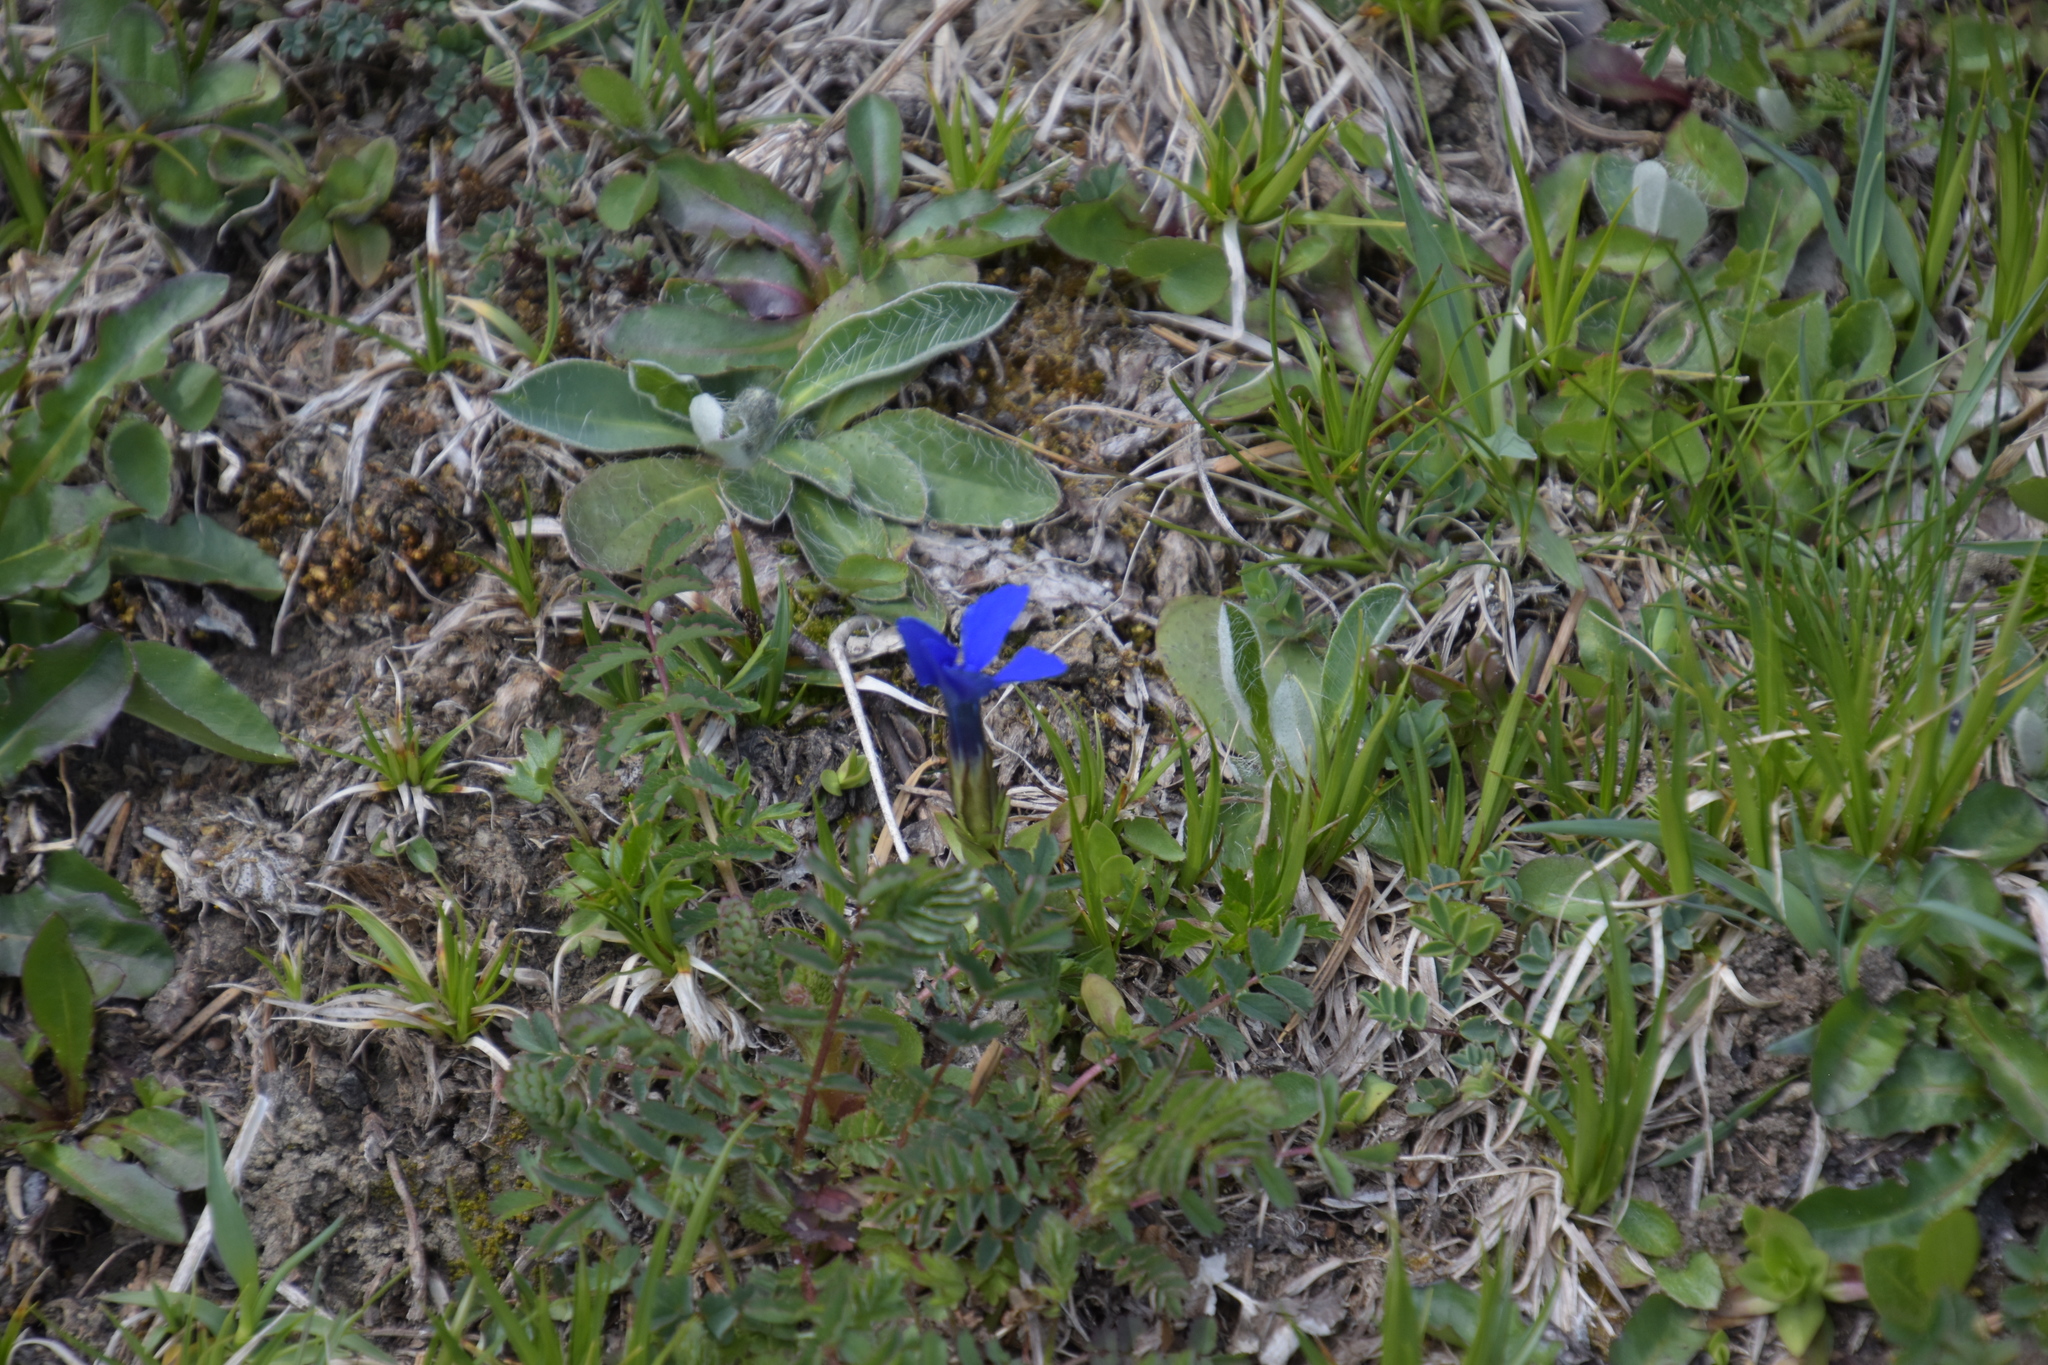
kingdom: Plantae
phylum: Tracheophyta
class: Magnoliopsida
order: Gentianales
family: Gentianaceae
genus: Gentiana
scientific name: Gentiana verna
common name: Spring gentian
